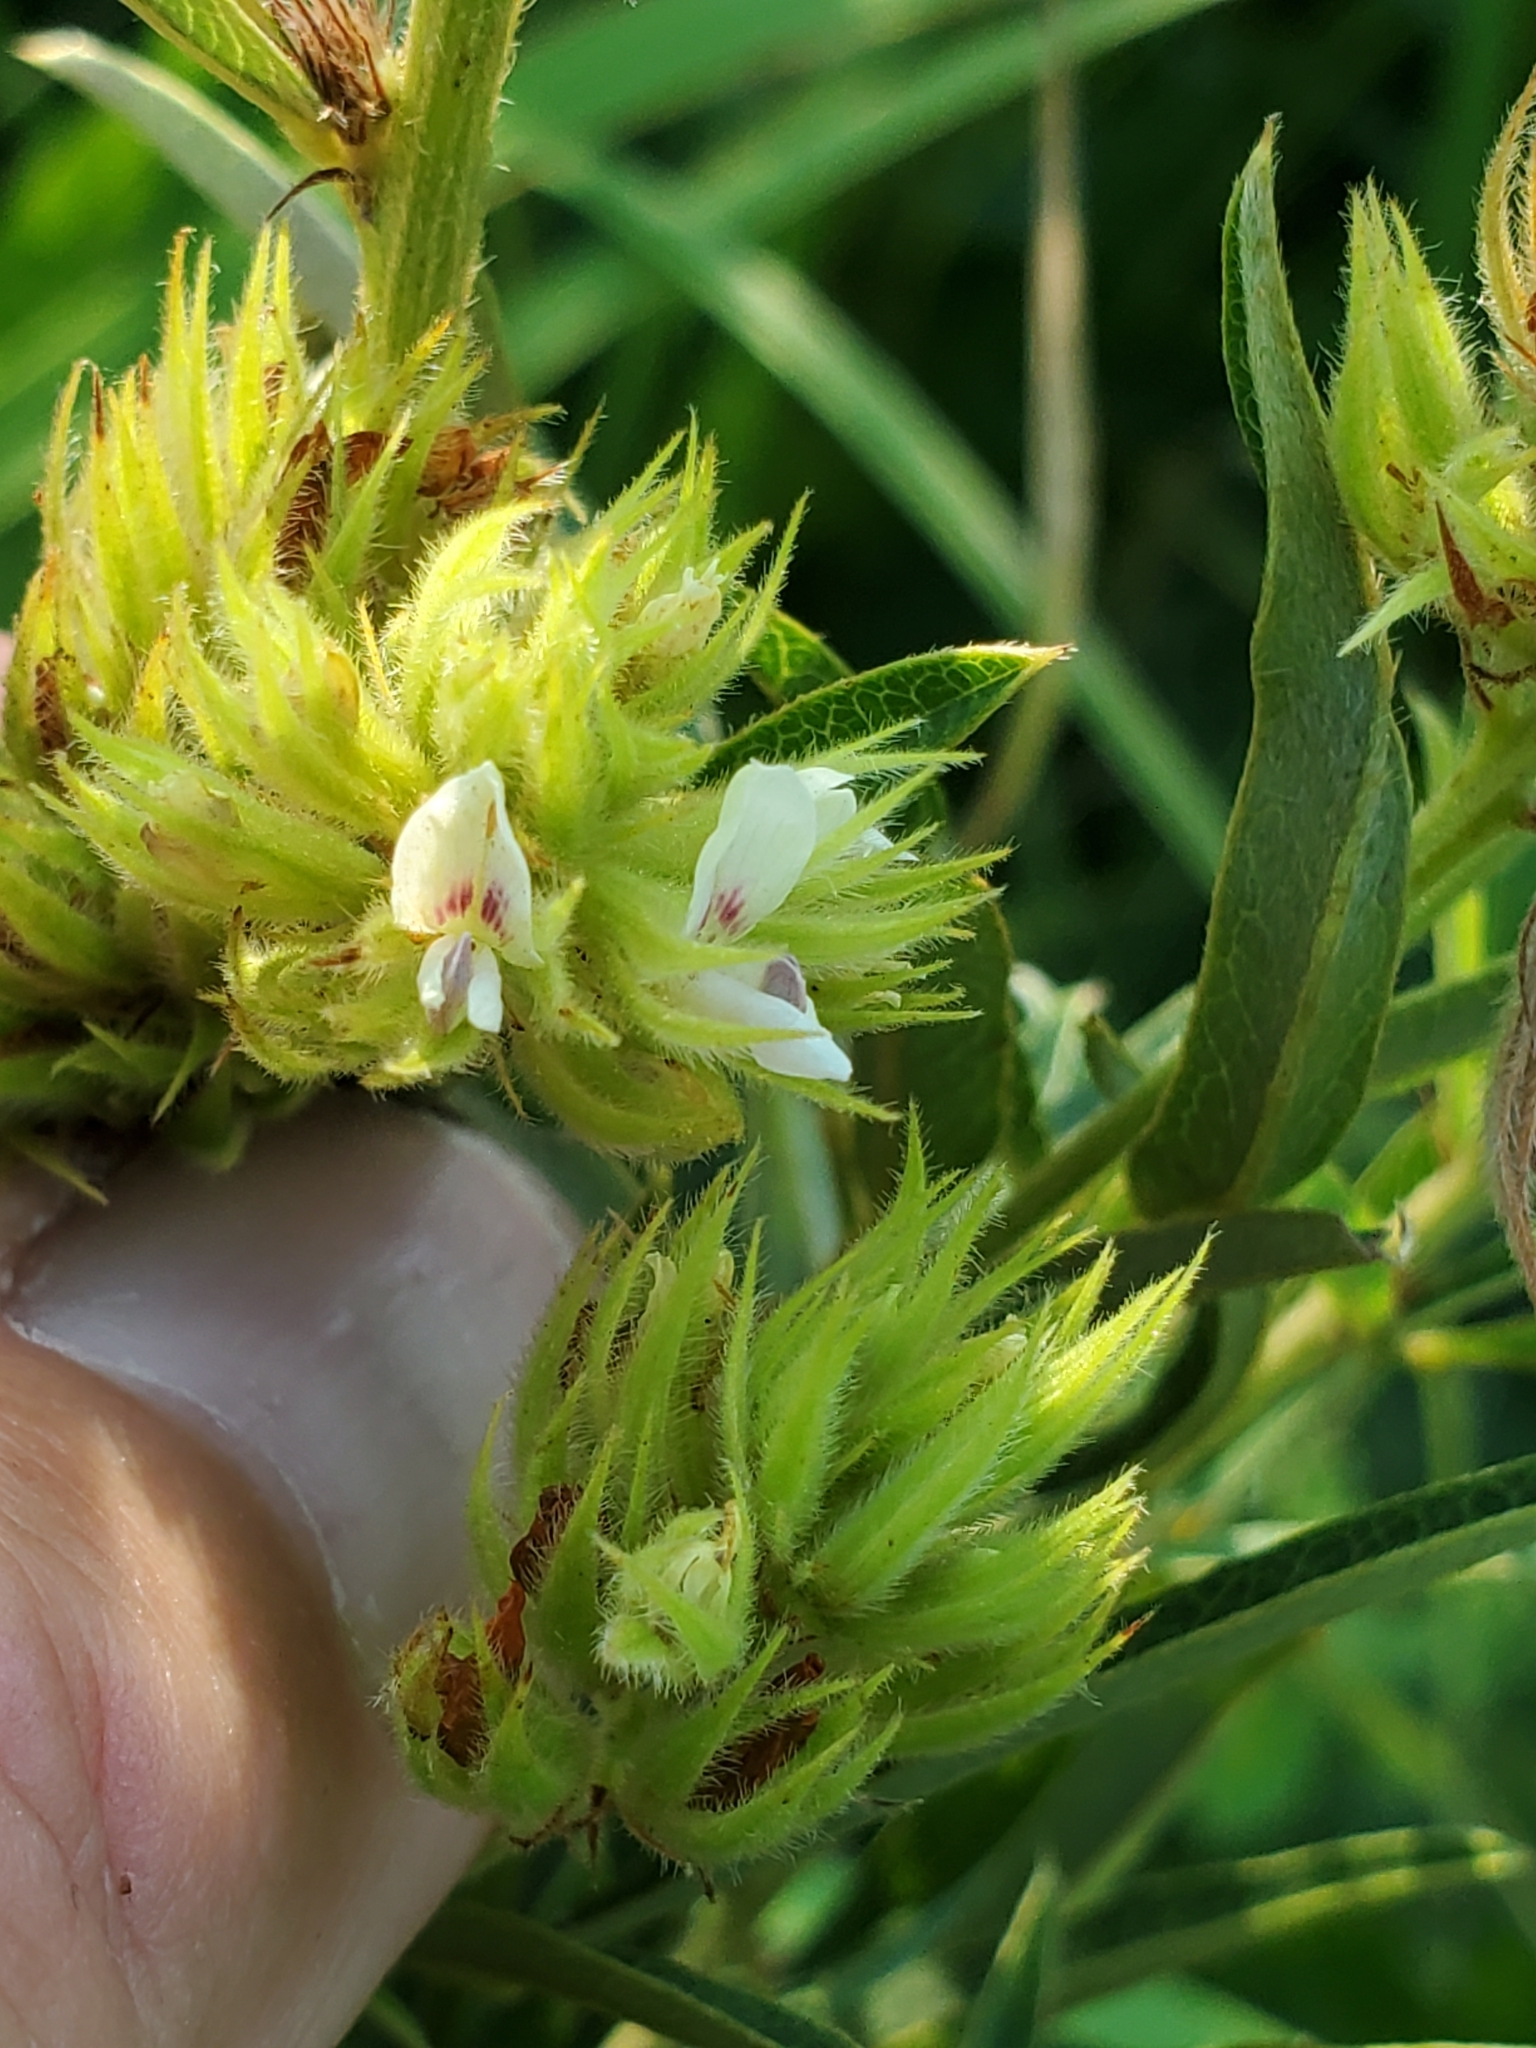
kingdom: Plantae
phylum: Tracheophyta
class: Magnoliopsida
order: Fabales
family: Fabaceae
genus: Lespedeza
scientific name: Lespedeza capitata
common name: Dusty clover
